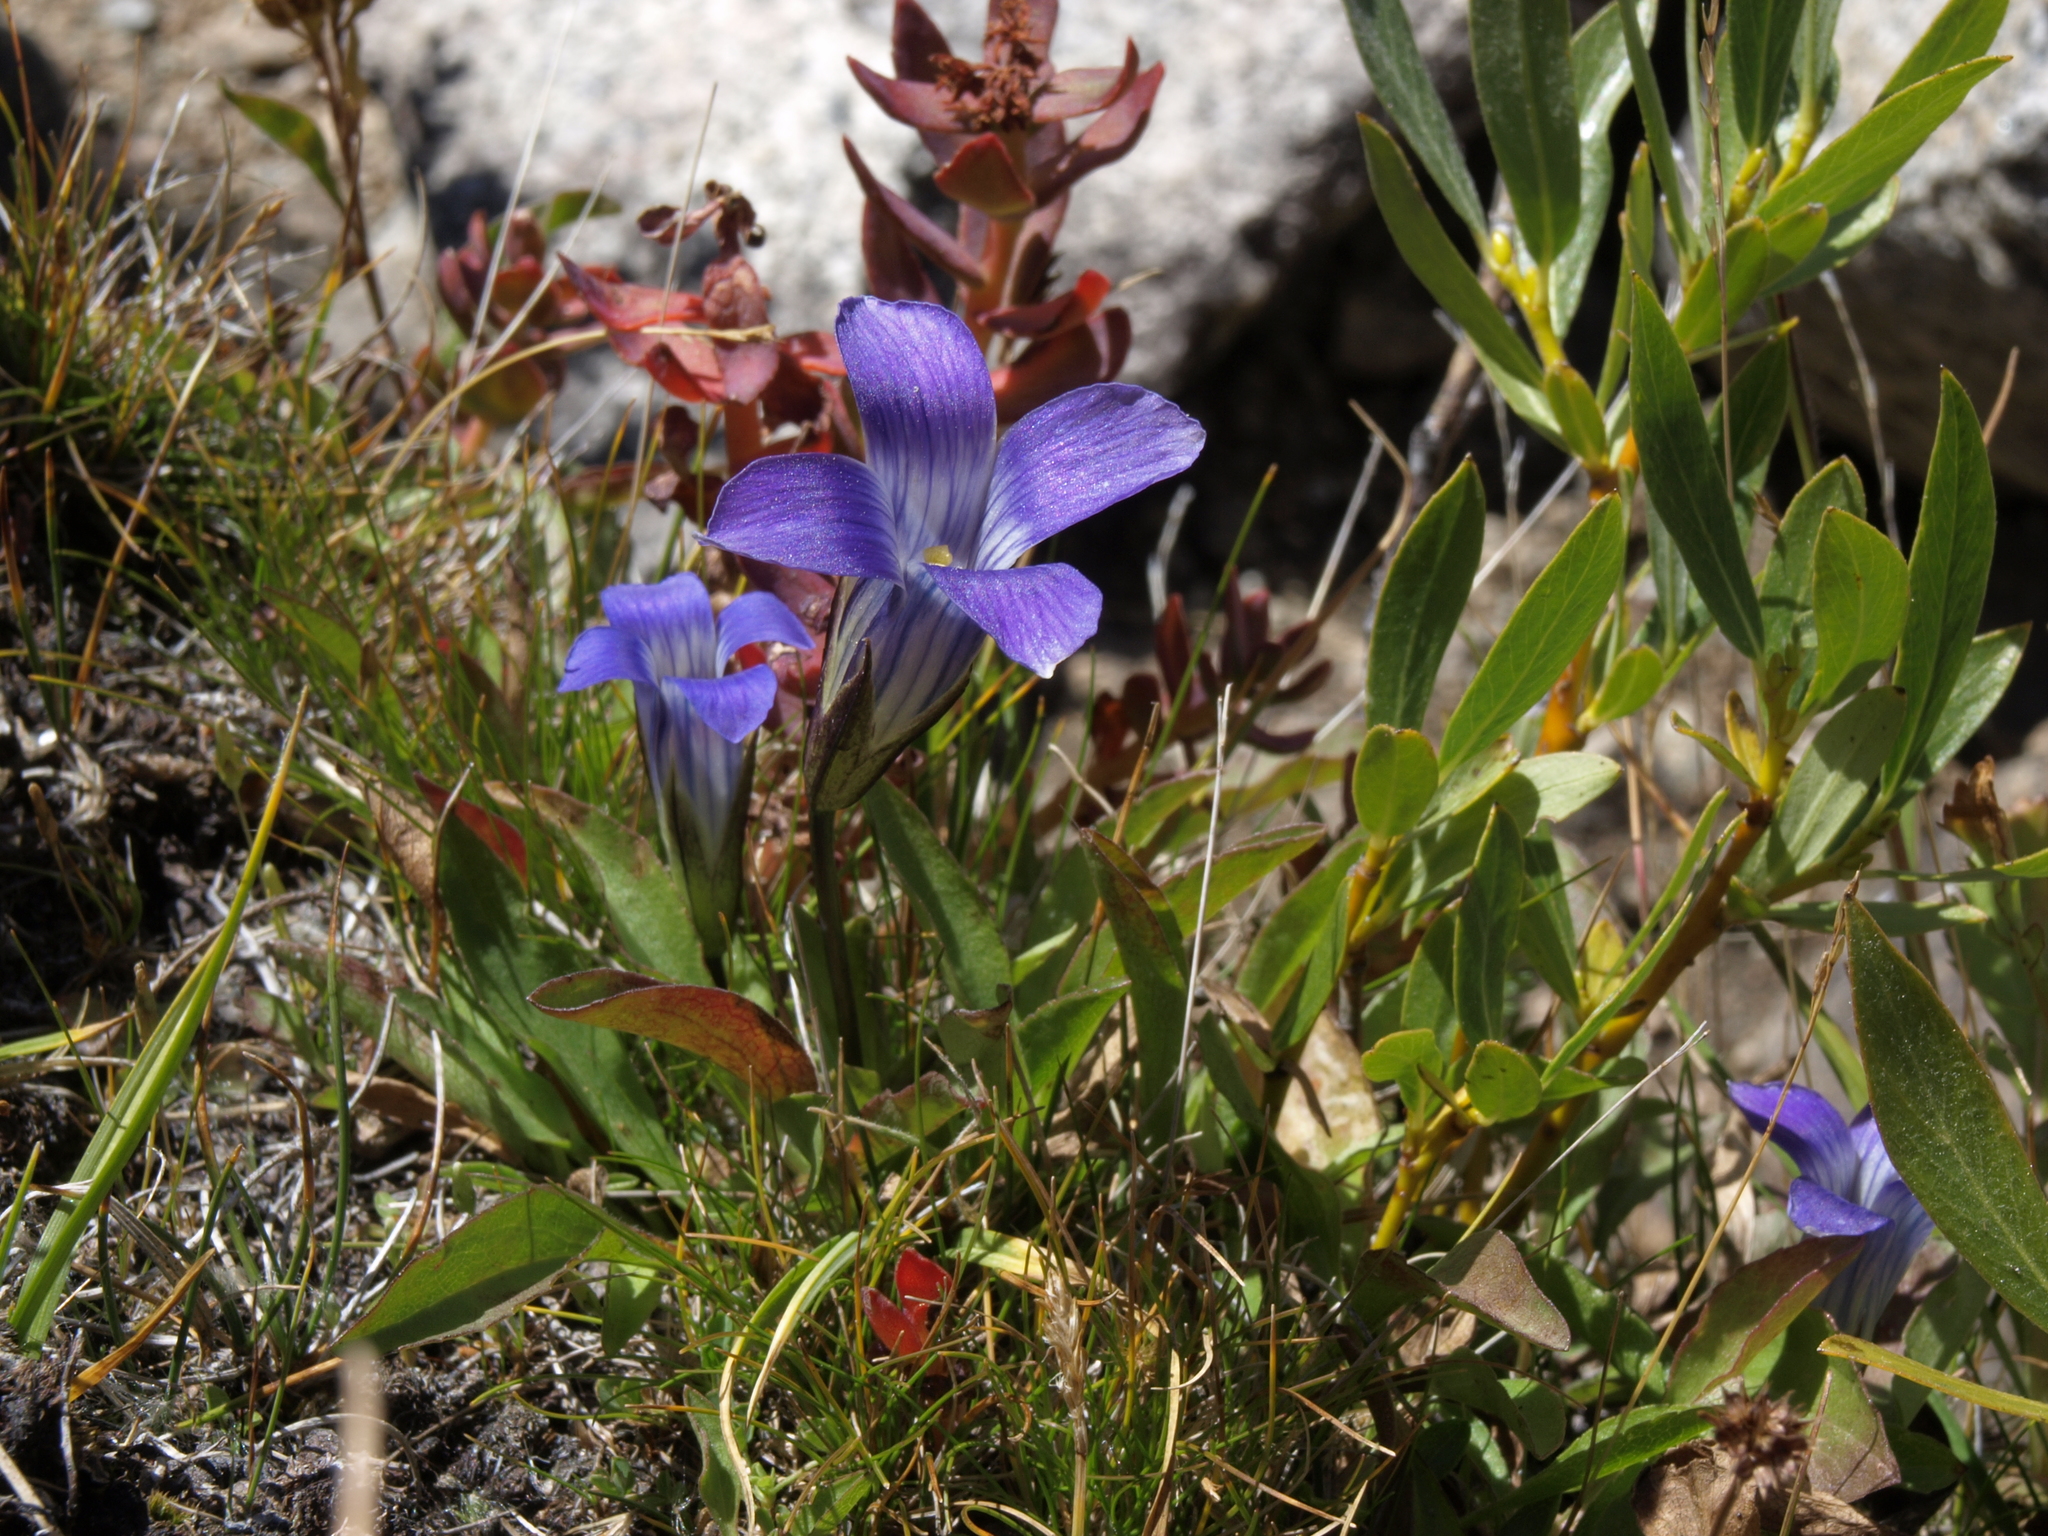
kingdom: Plantae
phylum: Tracheophyta
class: Magnoliopsida
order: Gentianales
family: Gentianaceae
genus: Gentianopsis
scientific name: Gentianopsis holopetala
